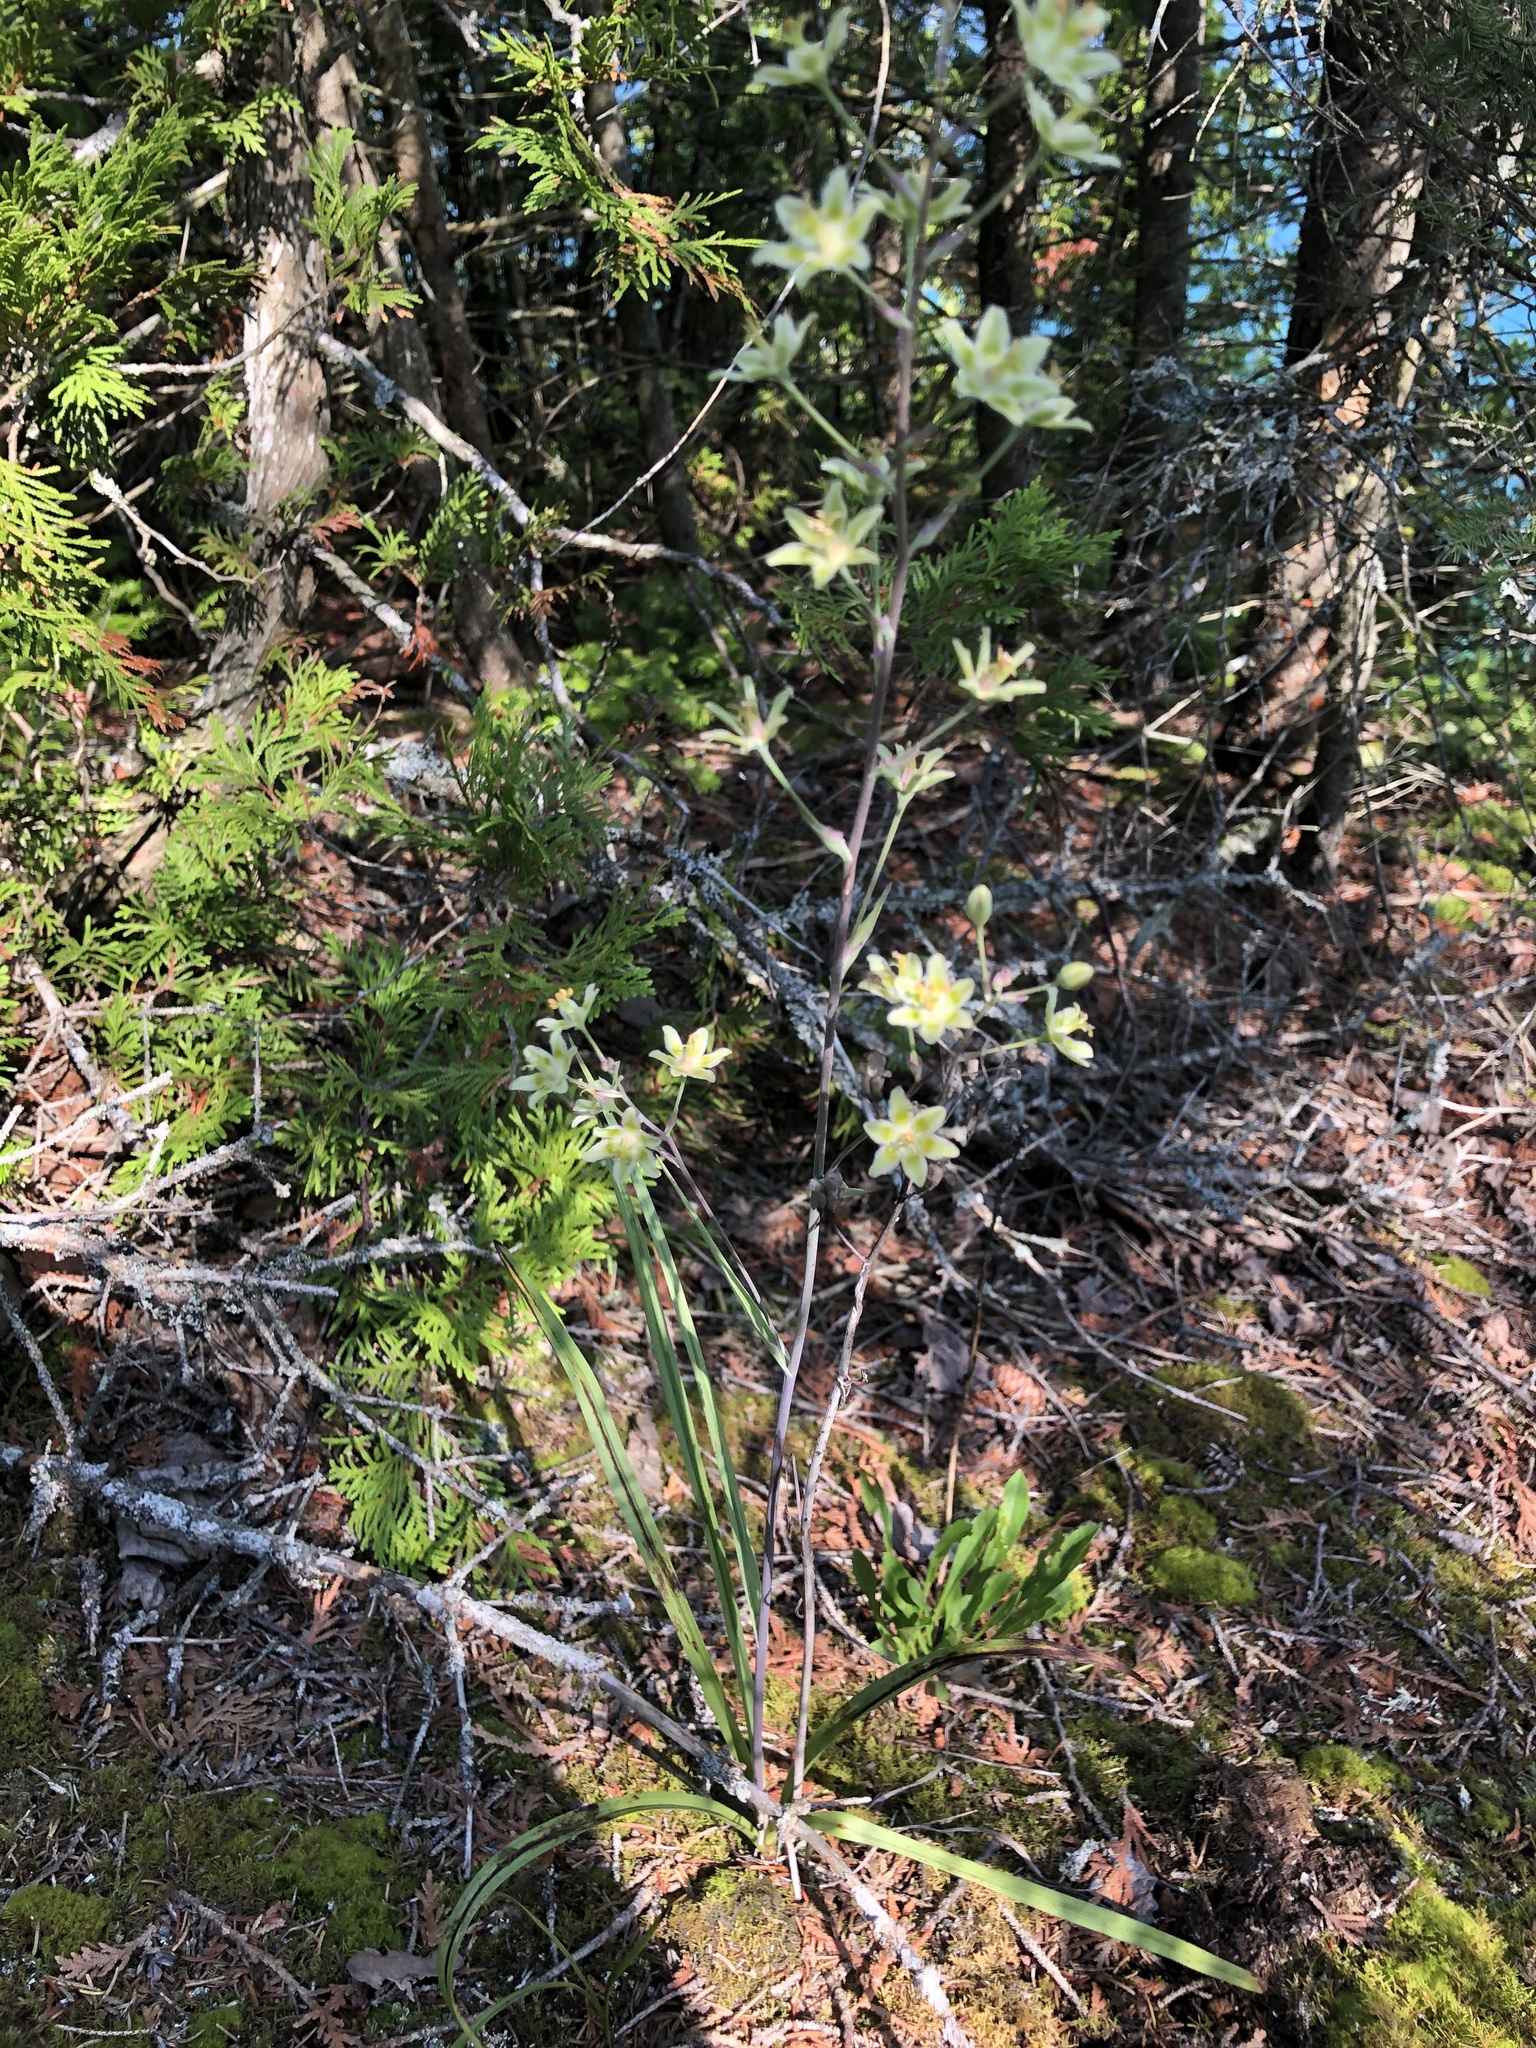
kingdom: Plantae
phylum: Tracheophyta
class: Liliopsida
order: Liliales
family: Melanthiaceae
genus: Anticlea
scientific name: Anticlea elegans
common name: Mountain death camas
